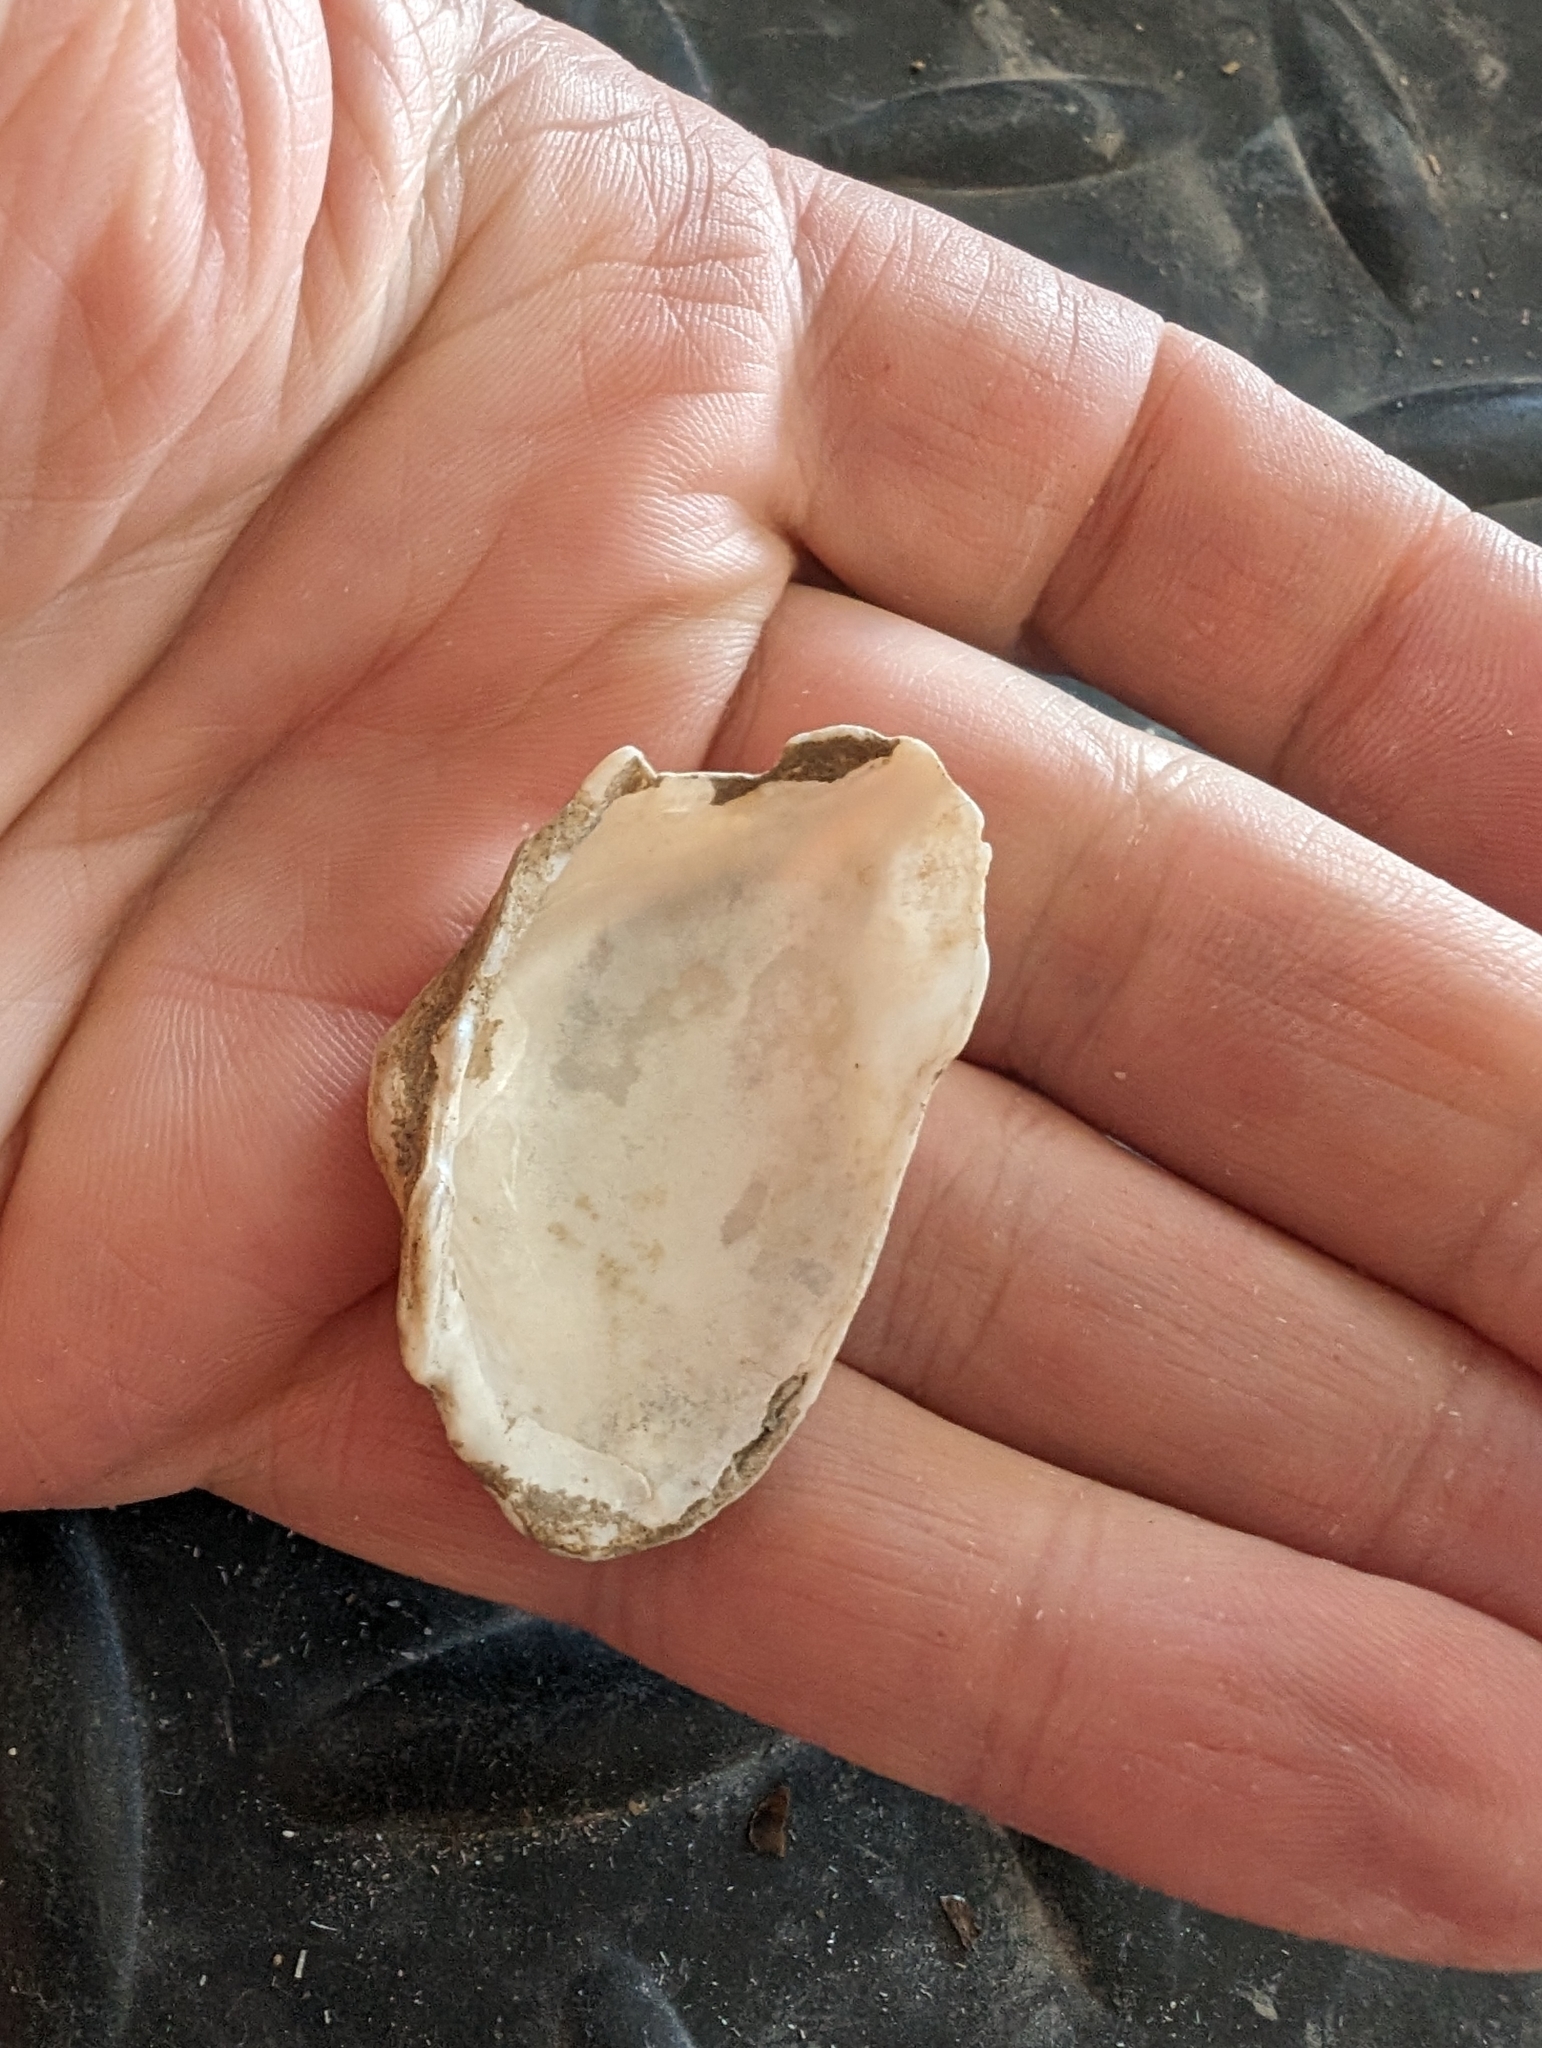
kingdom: Animalia
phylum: Mollusca
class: Bivalvia
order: Unionida
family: Unionidae
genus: Alasmidonta
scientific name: Alasmidonta marginata
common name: Elktoe
